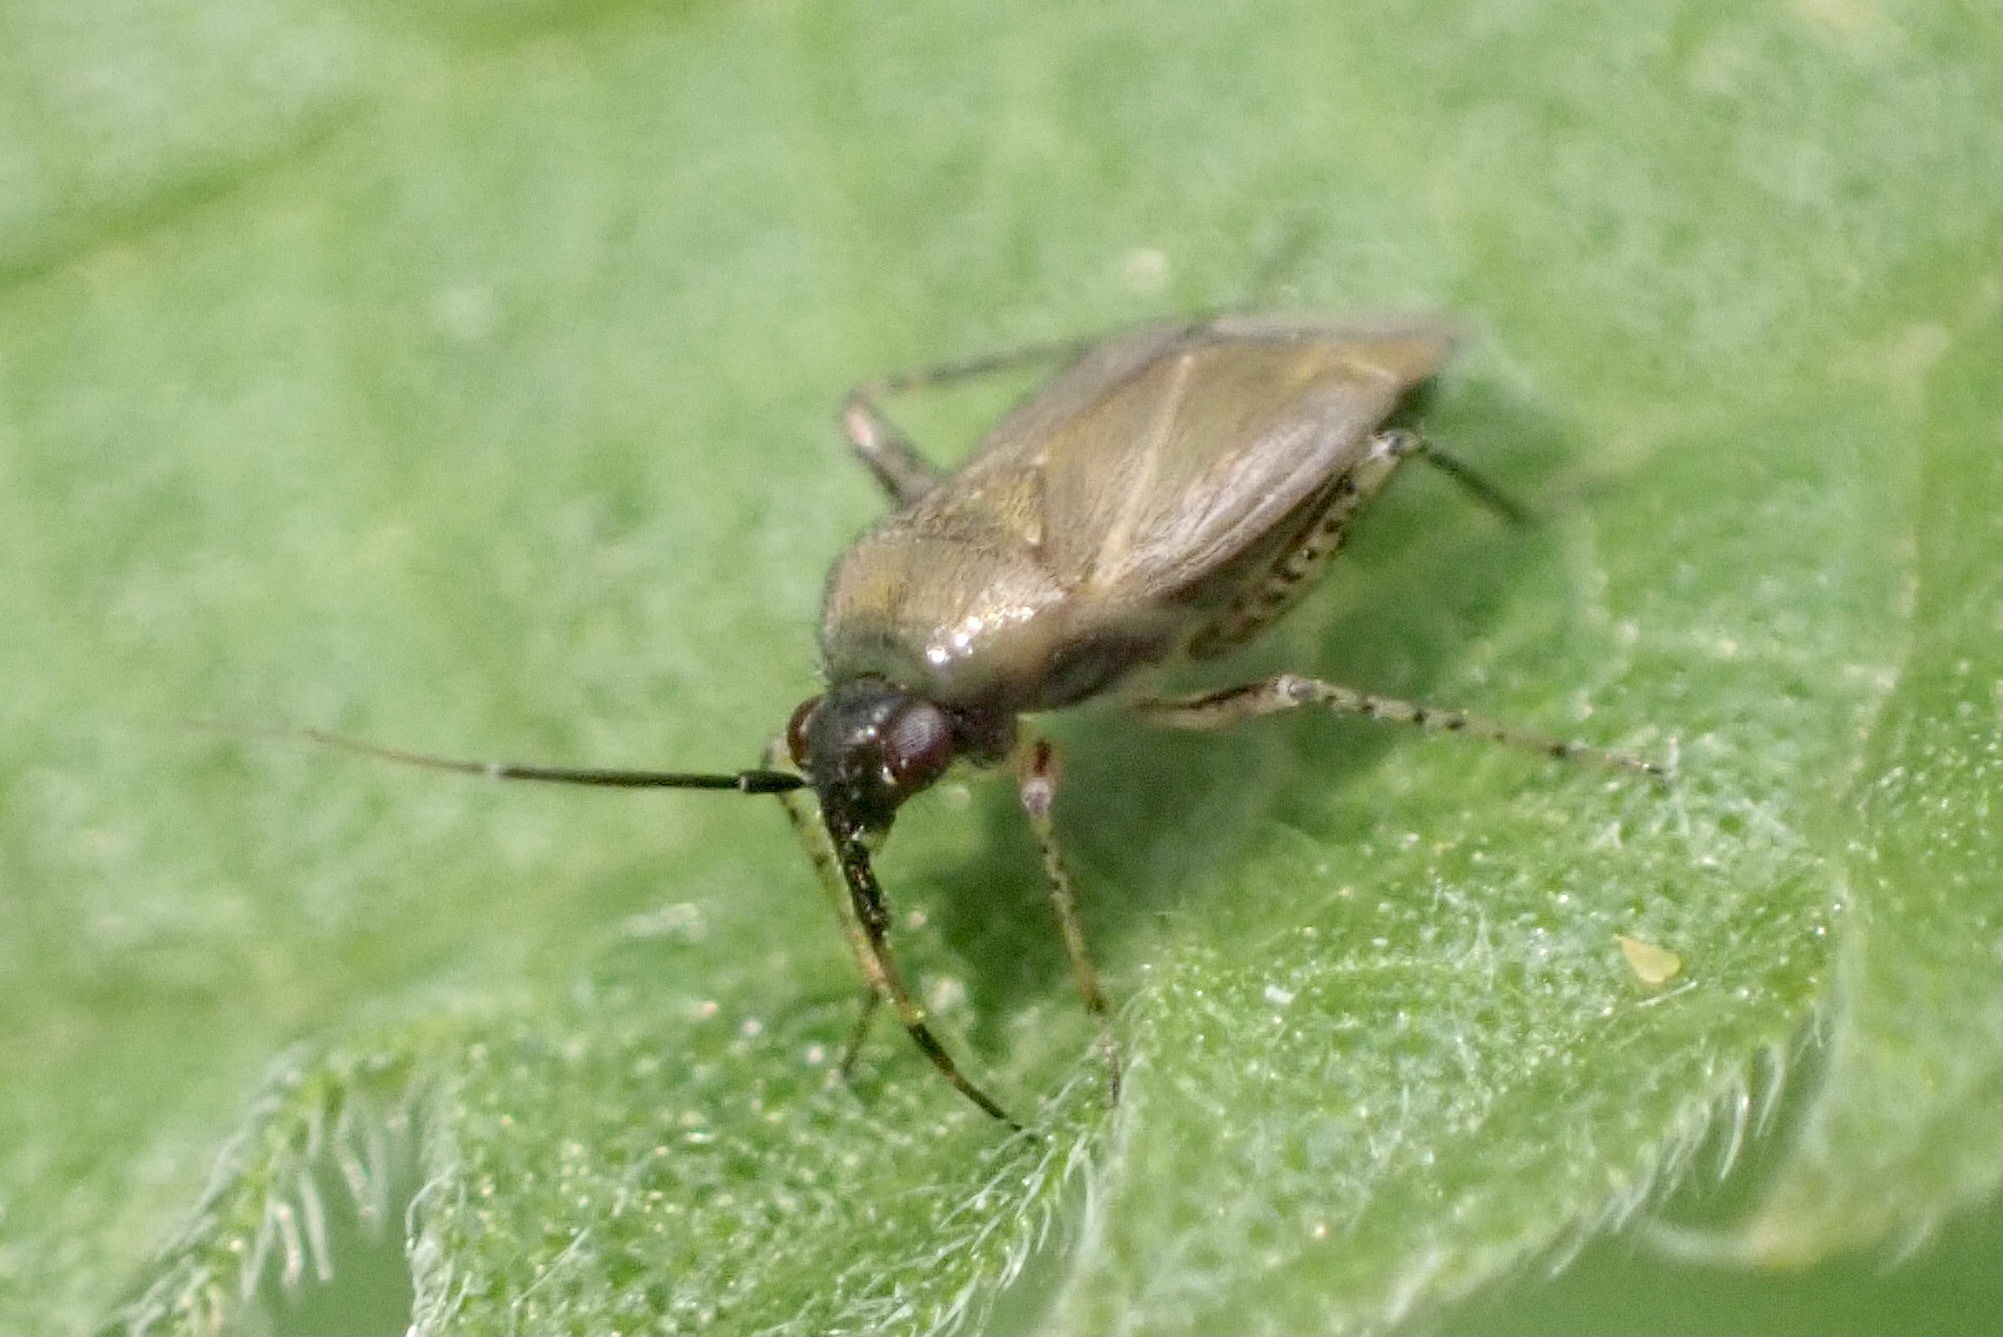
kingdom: Animalia
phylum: Arthropoda
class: Insecta
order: Hemiptera
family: Miridae
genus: Plagiognathus
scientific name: Plagiognathus arbustorum
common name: Plant bug
